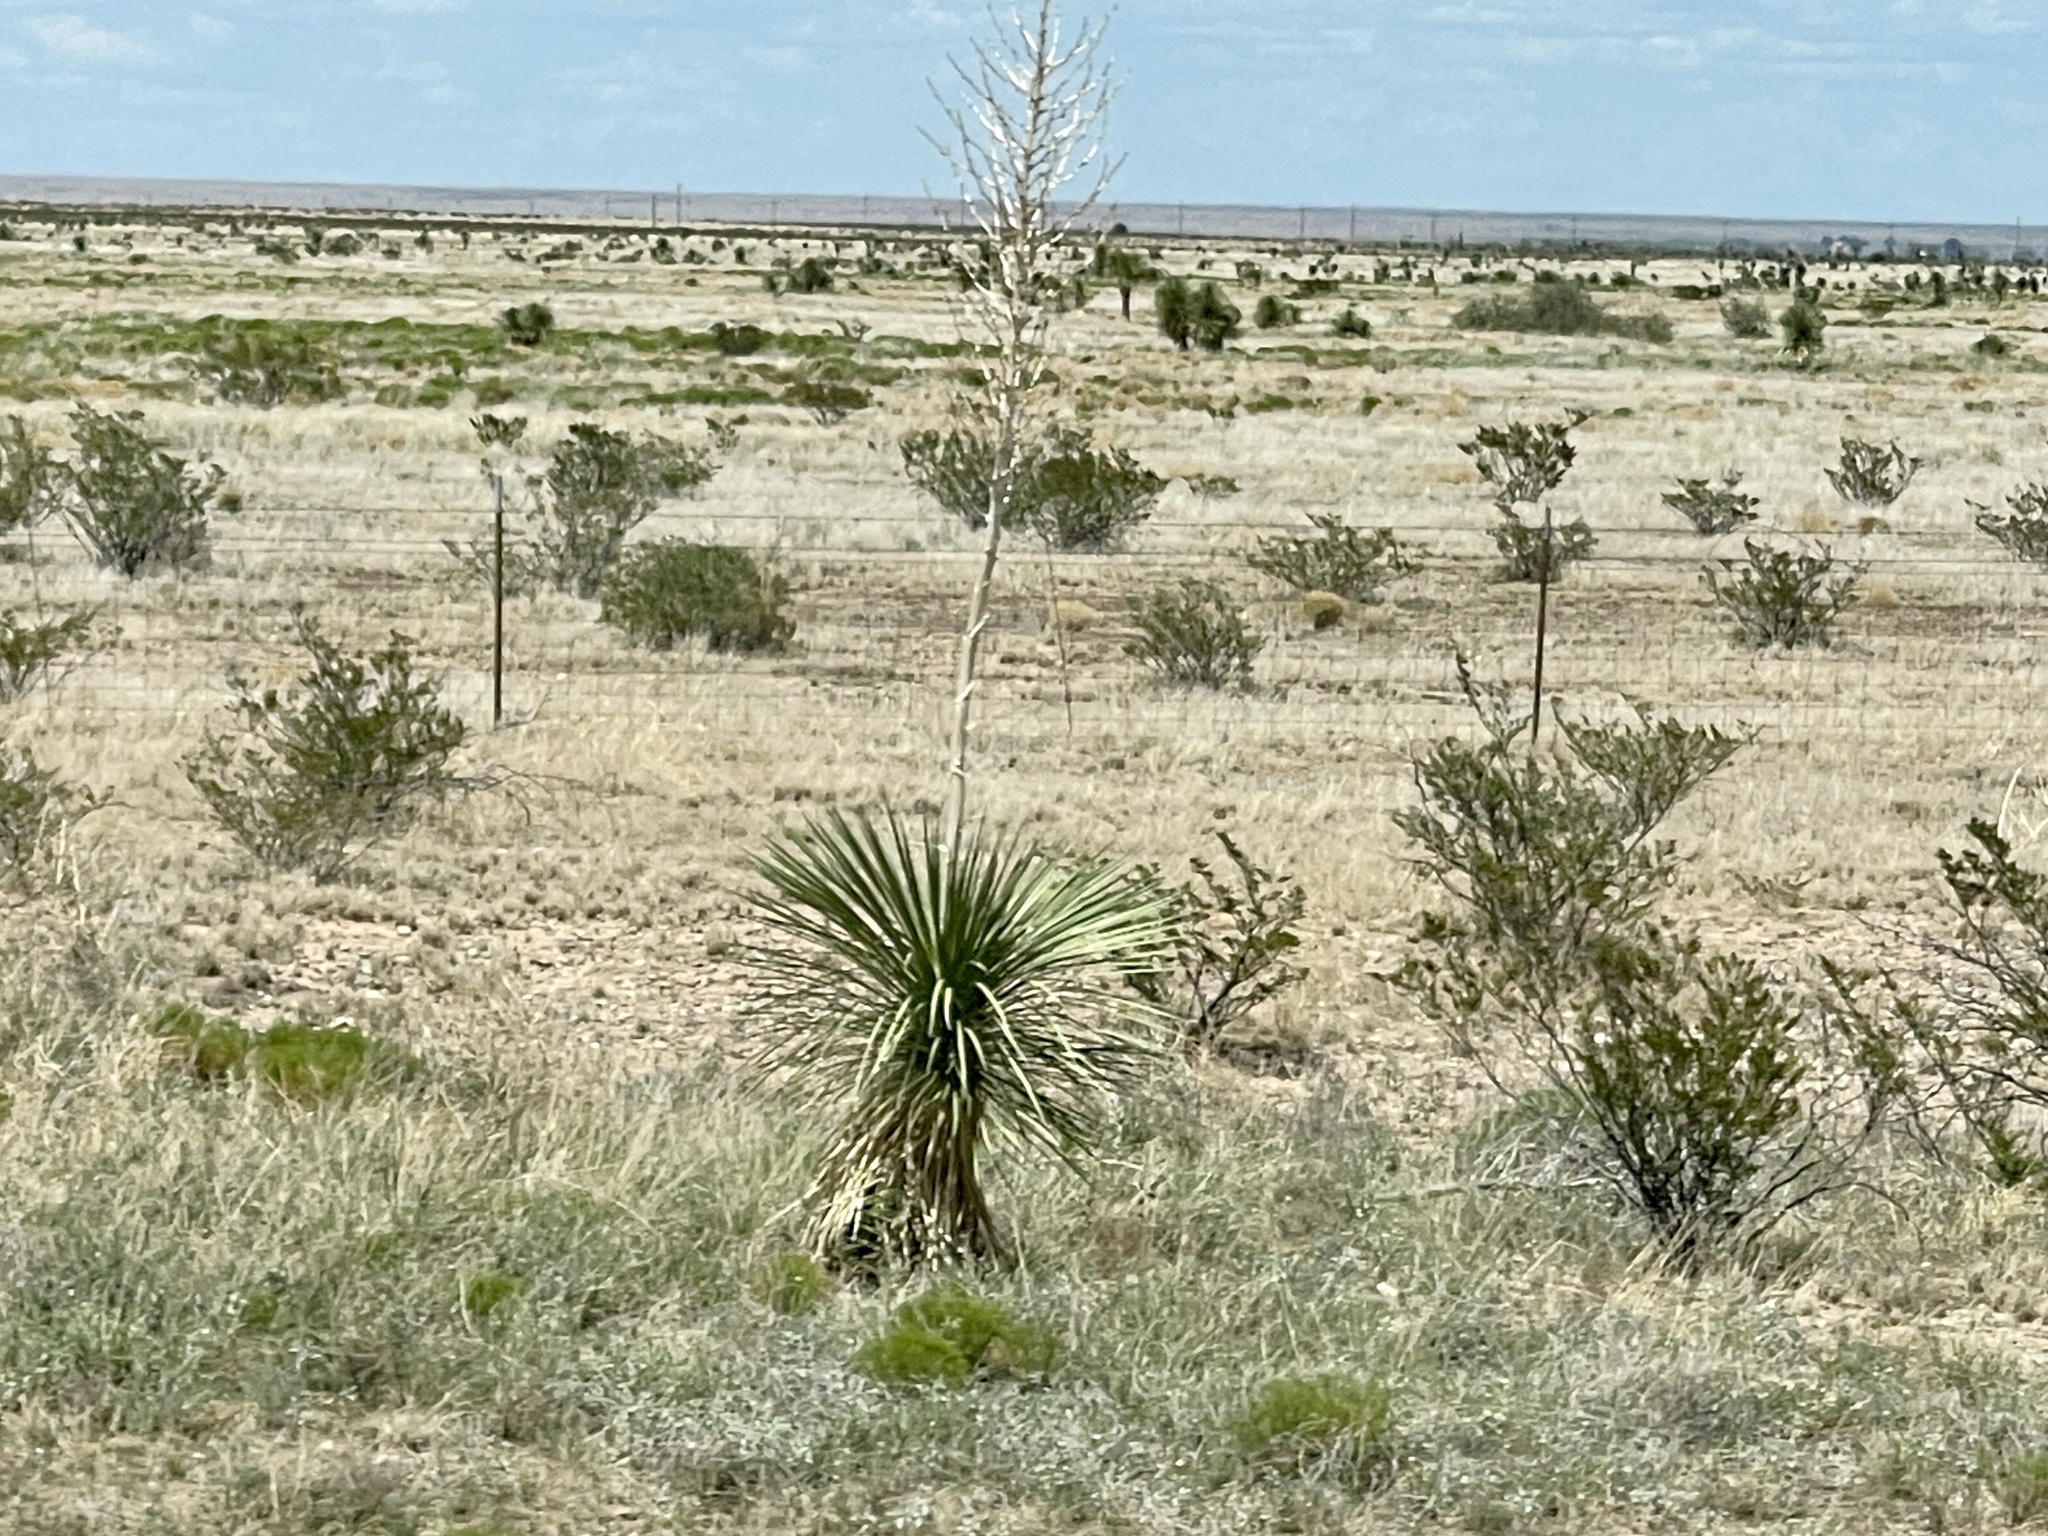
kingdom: Plantae
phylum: Tracheophyta
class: Liliopsida
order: Asparagales
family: Asparagaceae
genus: Yucca
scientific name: Yucca elata
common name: Palmella
